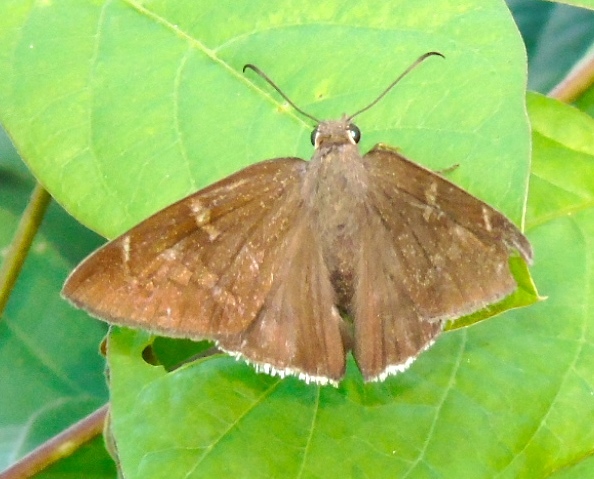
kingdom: Animalia
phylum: Arthropoda
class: Insecta
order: Lepidoptera
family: Hesperiidae
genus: Achalarus
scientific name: Achalarus Murgaria albociliatus
